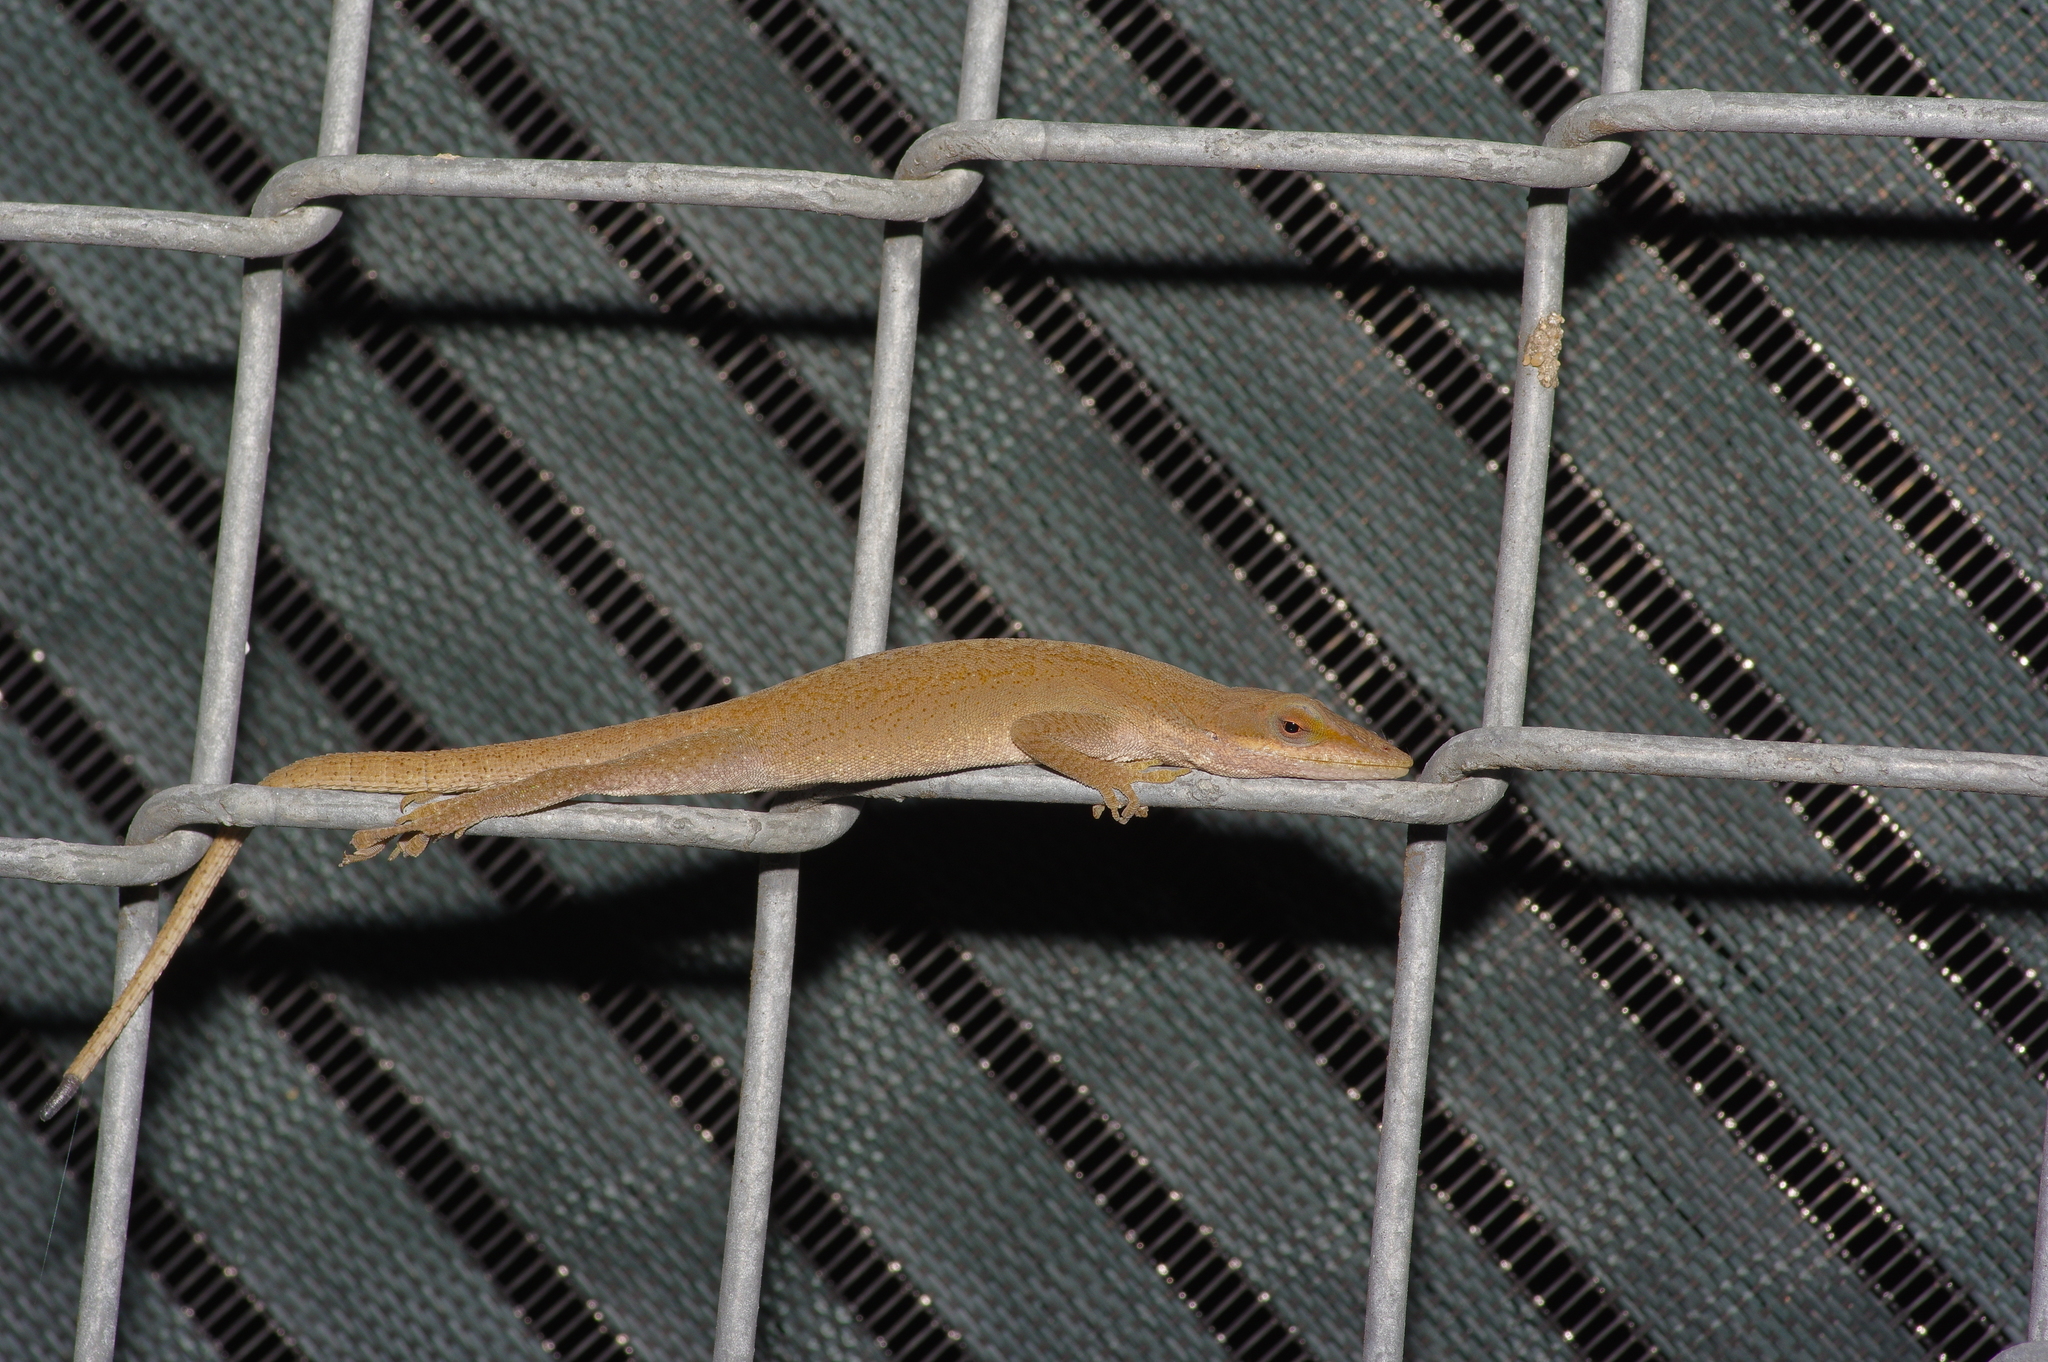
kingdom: Animalia
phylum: Chordata
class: Squamata
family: Dactyloidae
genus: Anolis
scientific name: Anolis carolinensis
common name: Green anole
